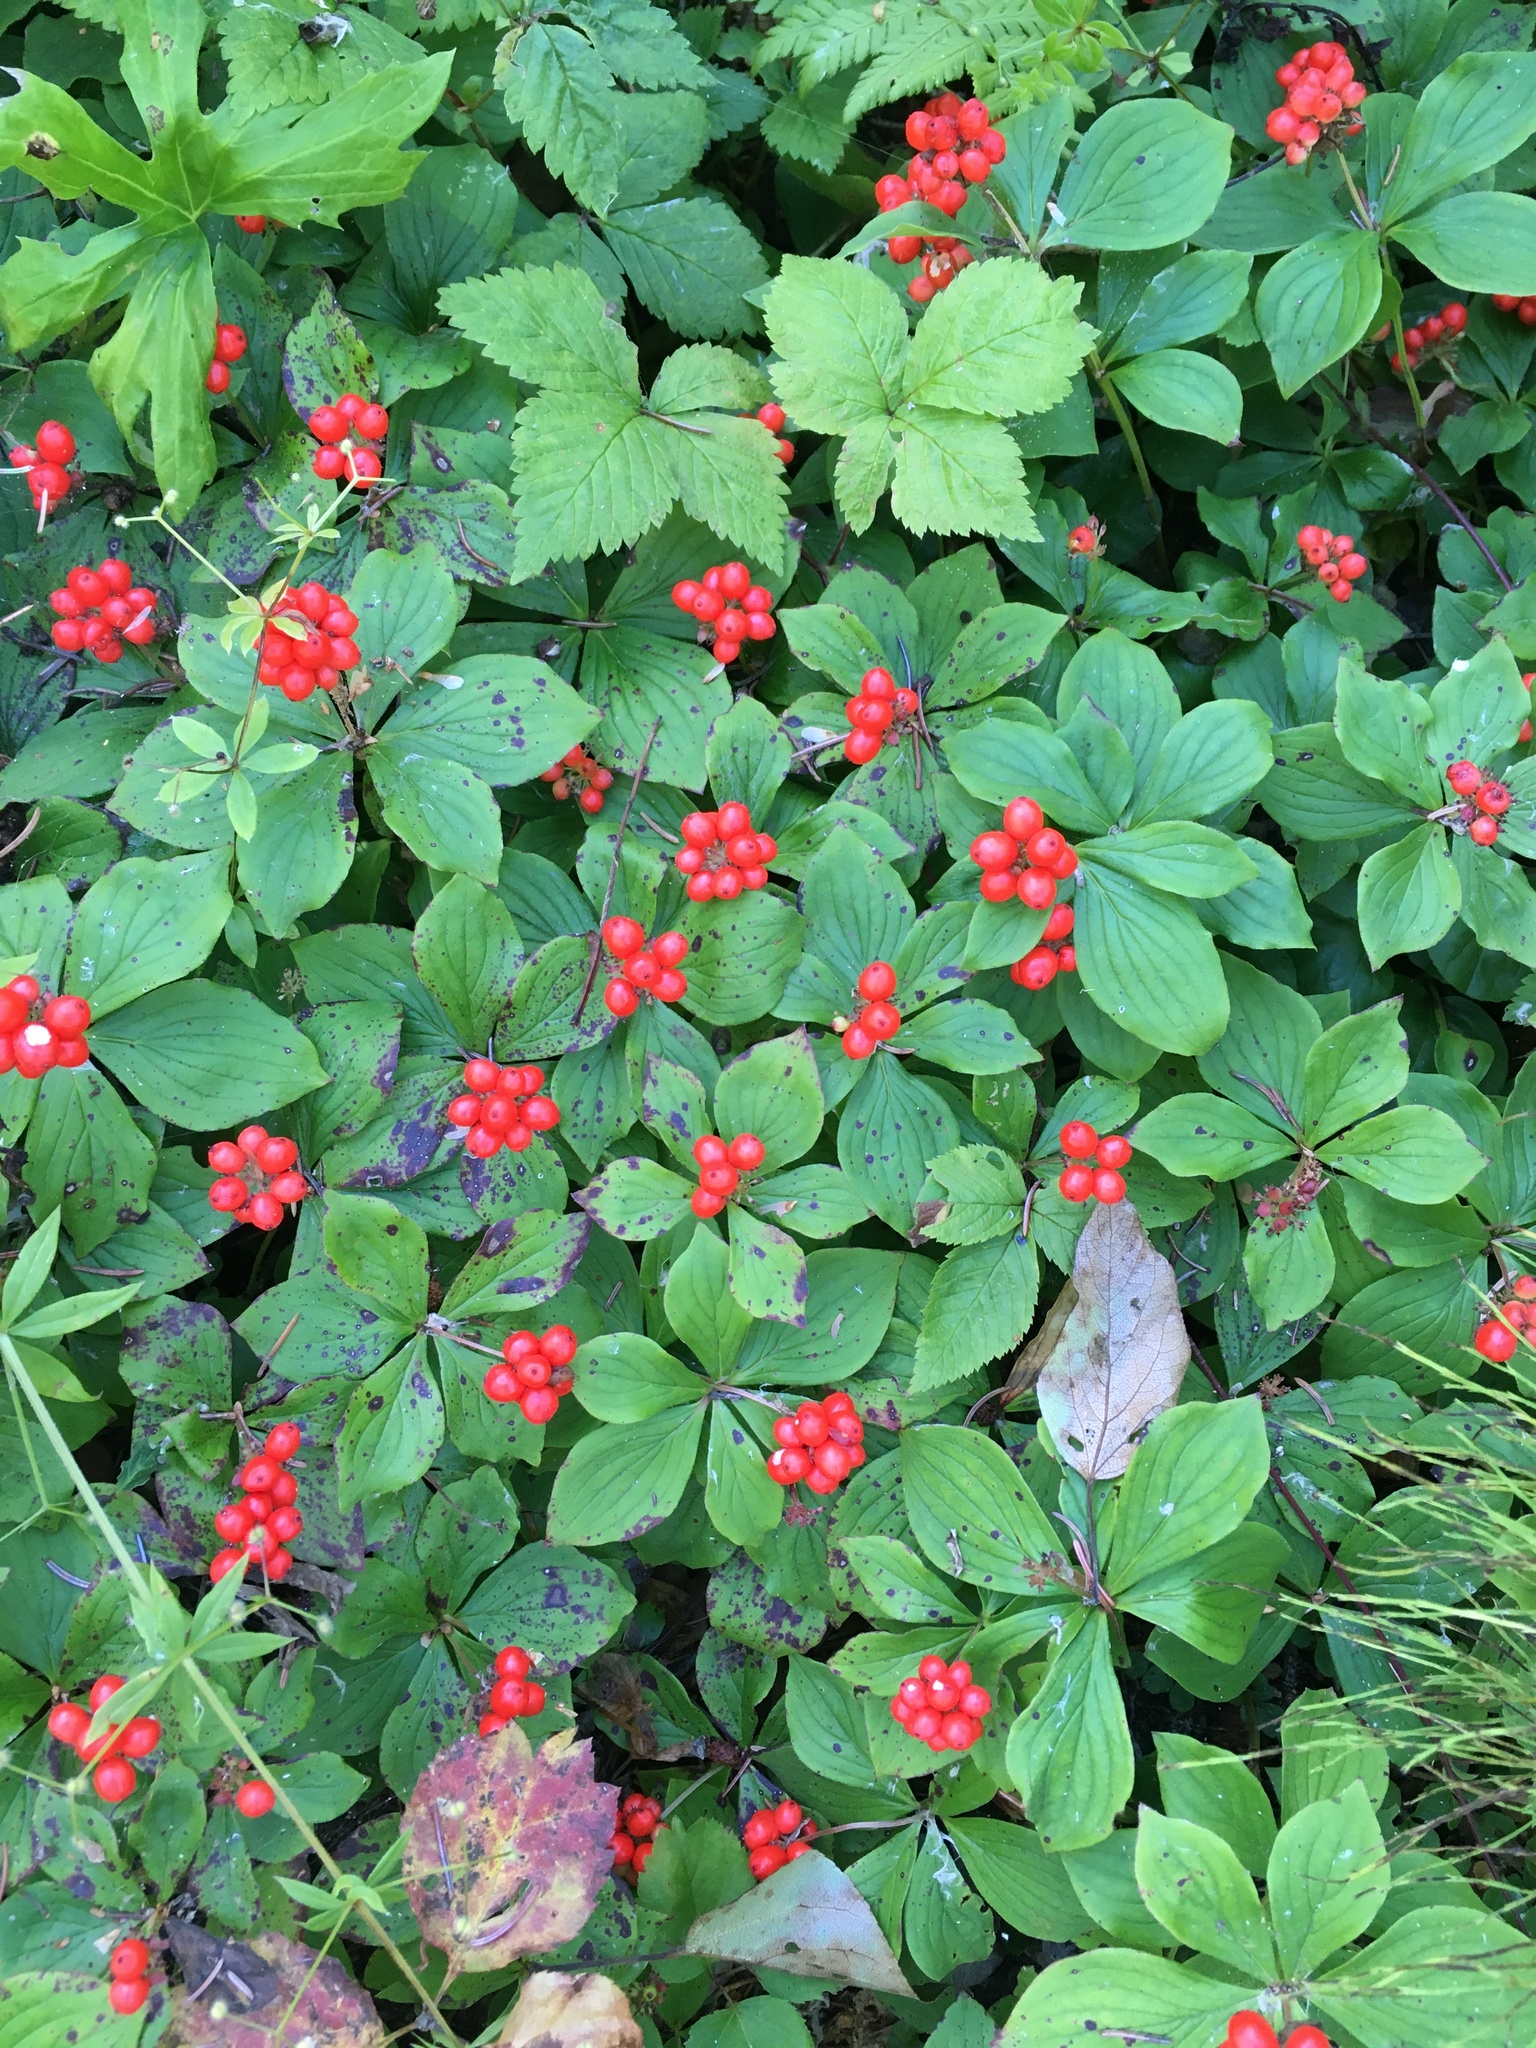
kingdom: Plantae
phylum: Tracheophyta
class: Magnoliopsida
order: Cornales
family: Cornaceae
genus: Cornus
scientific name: Cornus canadensis
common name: Creeping dogwood
